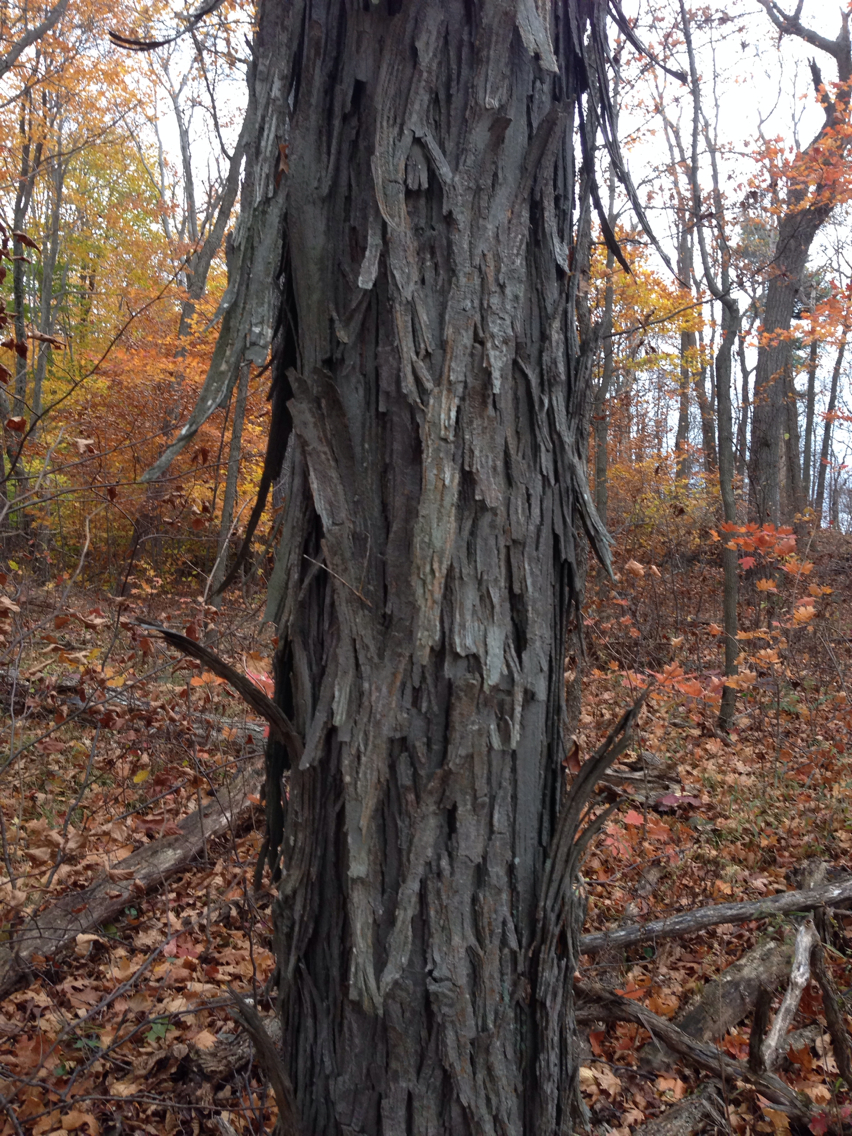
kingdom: Plantae
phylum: Tracheophyta
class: Magnoliopsida
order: Fagales
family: Juglandaceae
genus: Carya
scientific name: Carya ovata
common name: Shagbark hickory
